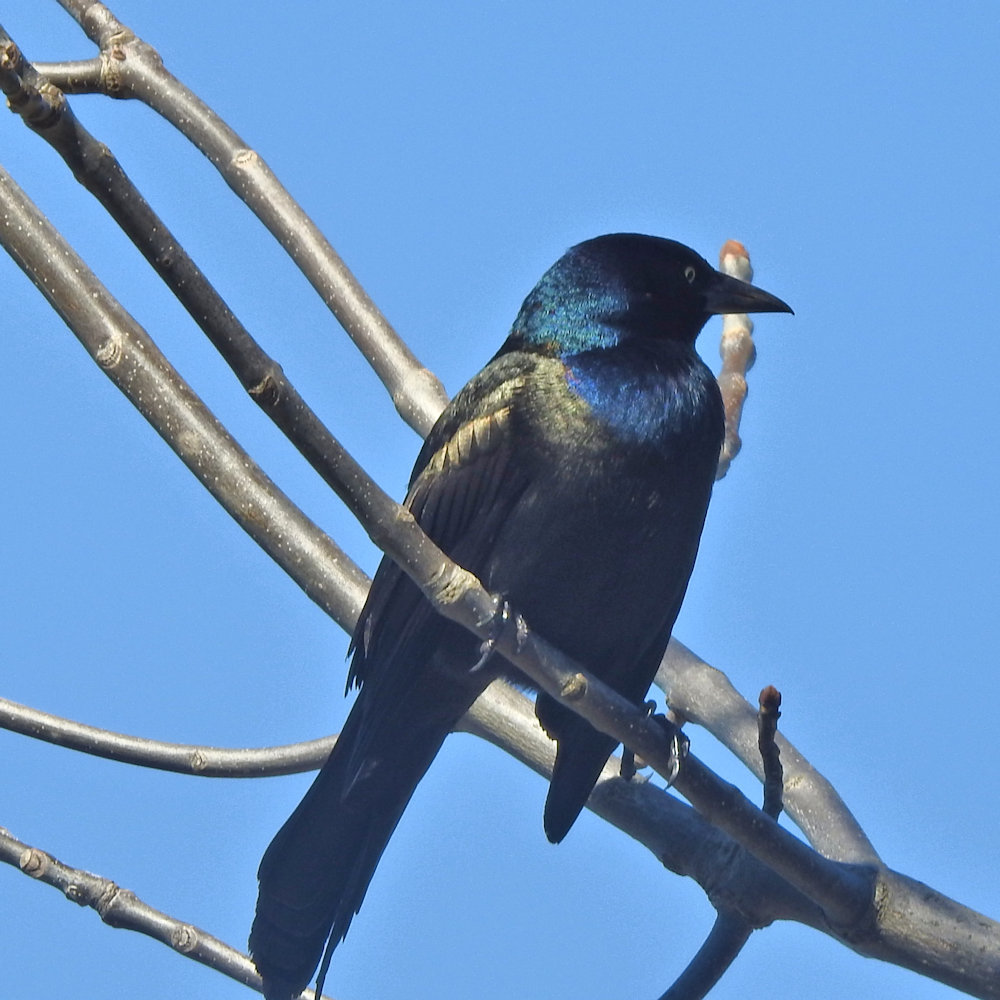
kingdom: Animalia
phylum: Chordata
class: Aves
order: Passeriformes
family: Icteridae
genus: Quiscalus
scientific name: Quiscalus quiscula
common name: Common grackle
